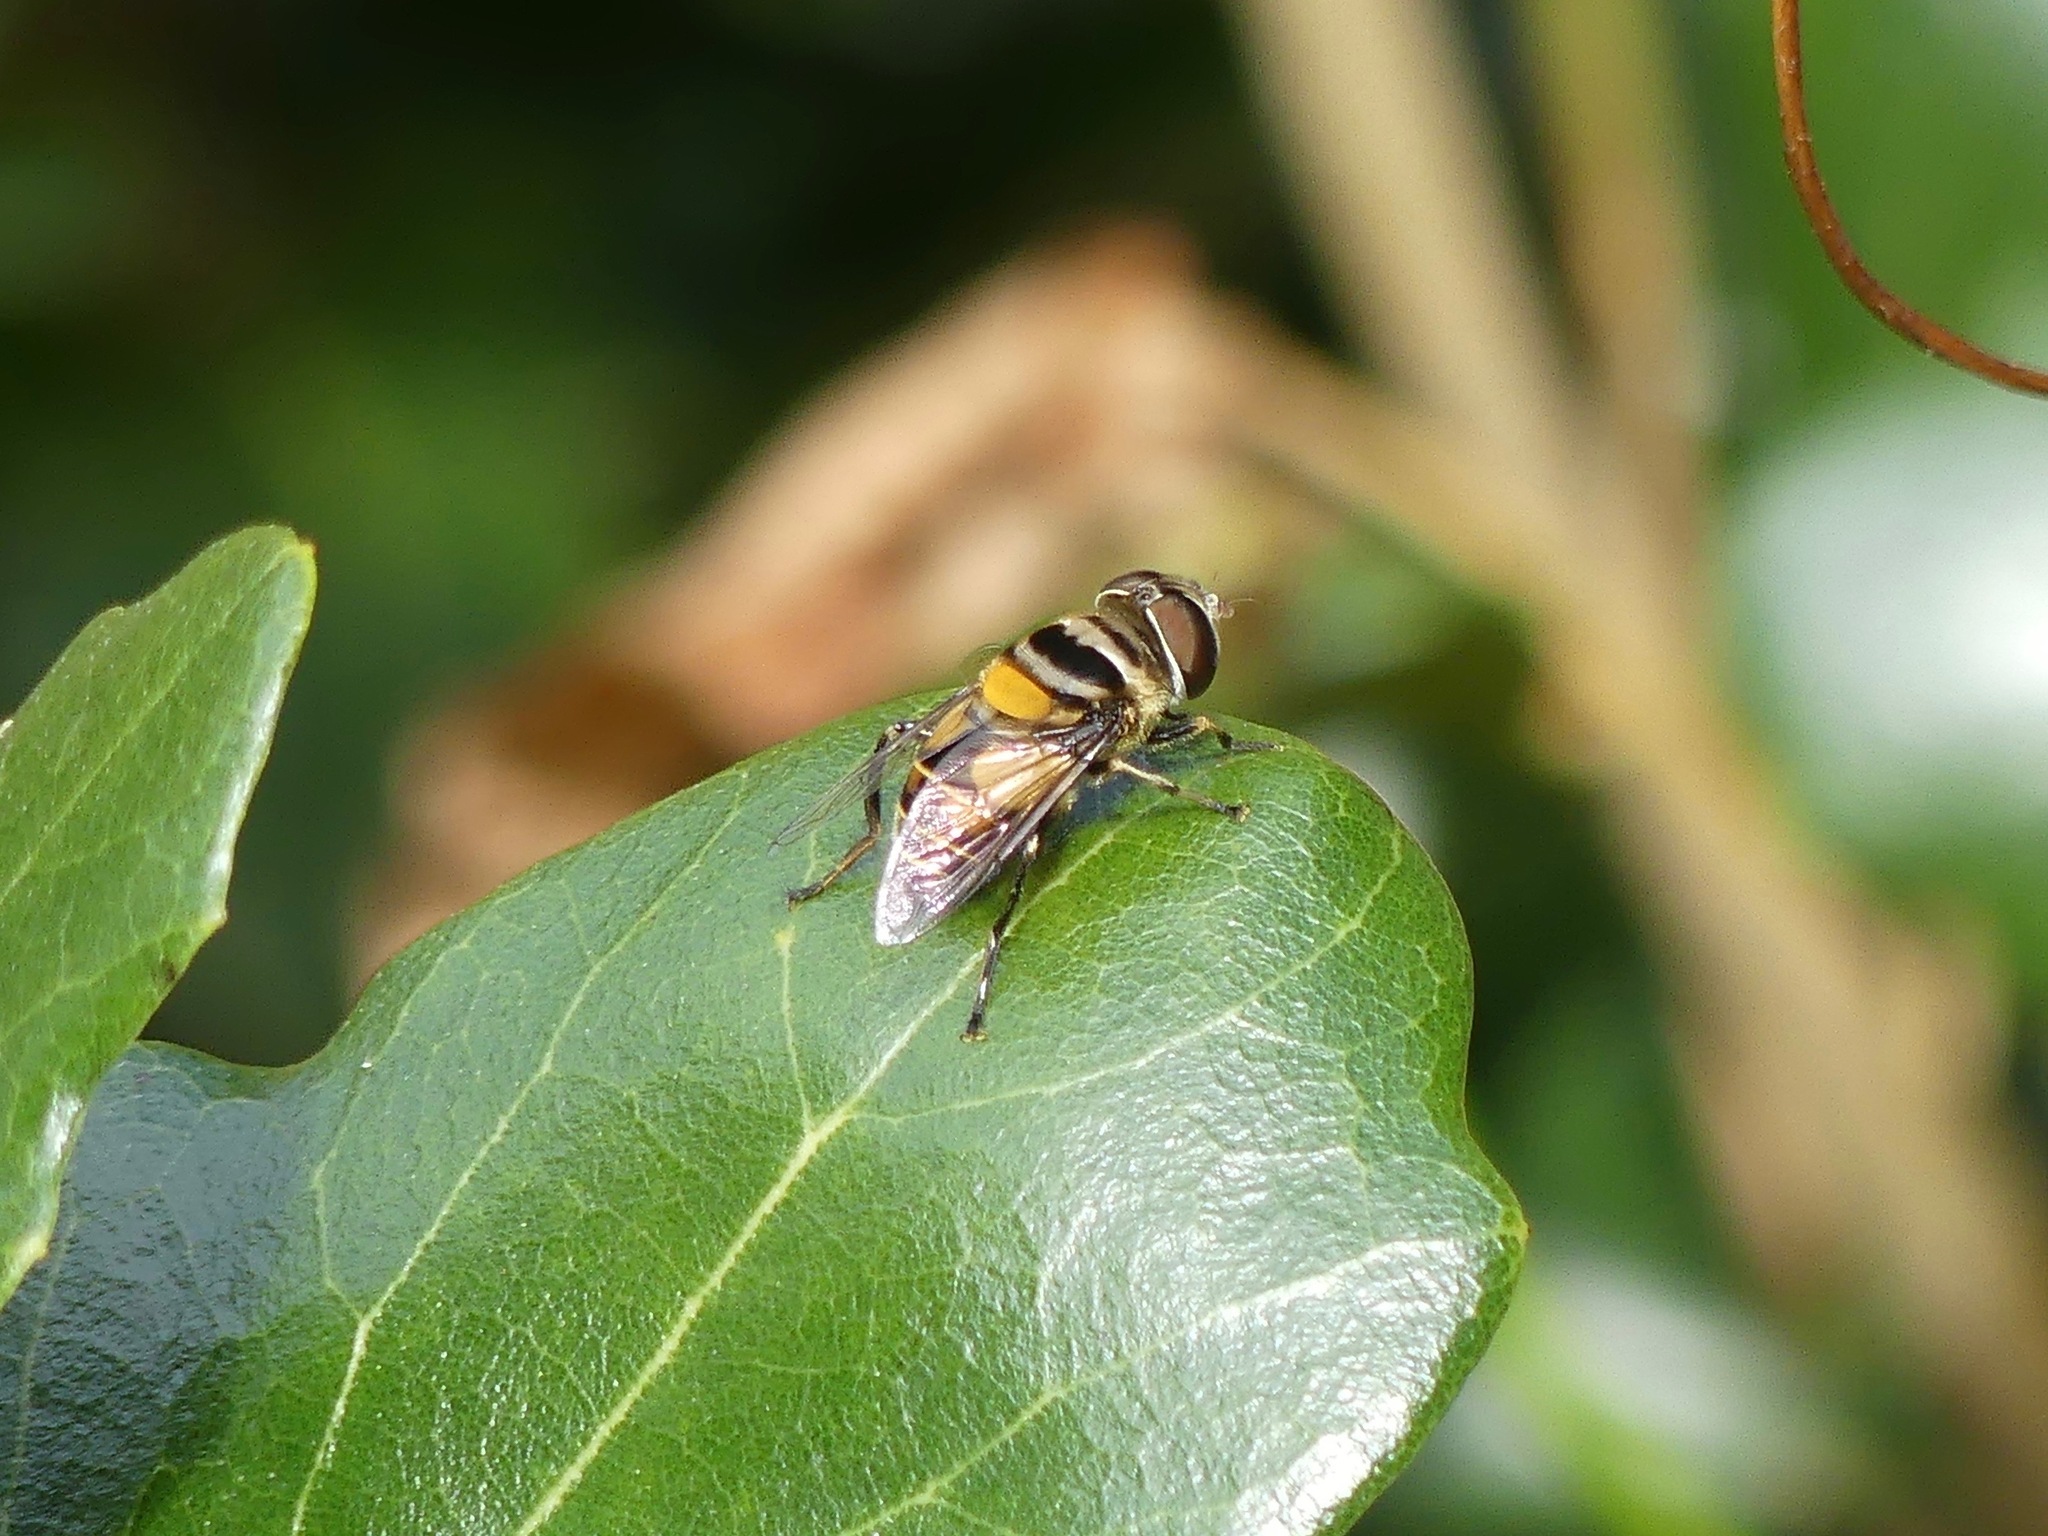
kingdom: Animalia
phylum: Arthropoda
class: Insecta
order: Diptera
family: Syrphidae
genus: Palpada
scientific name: Palpada agrorum
